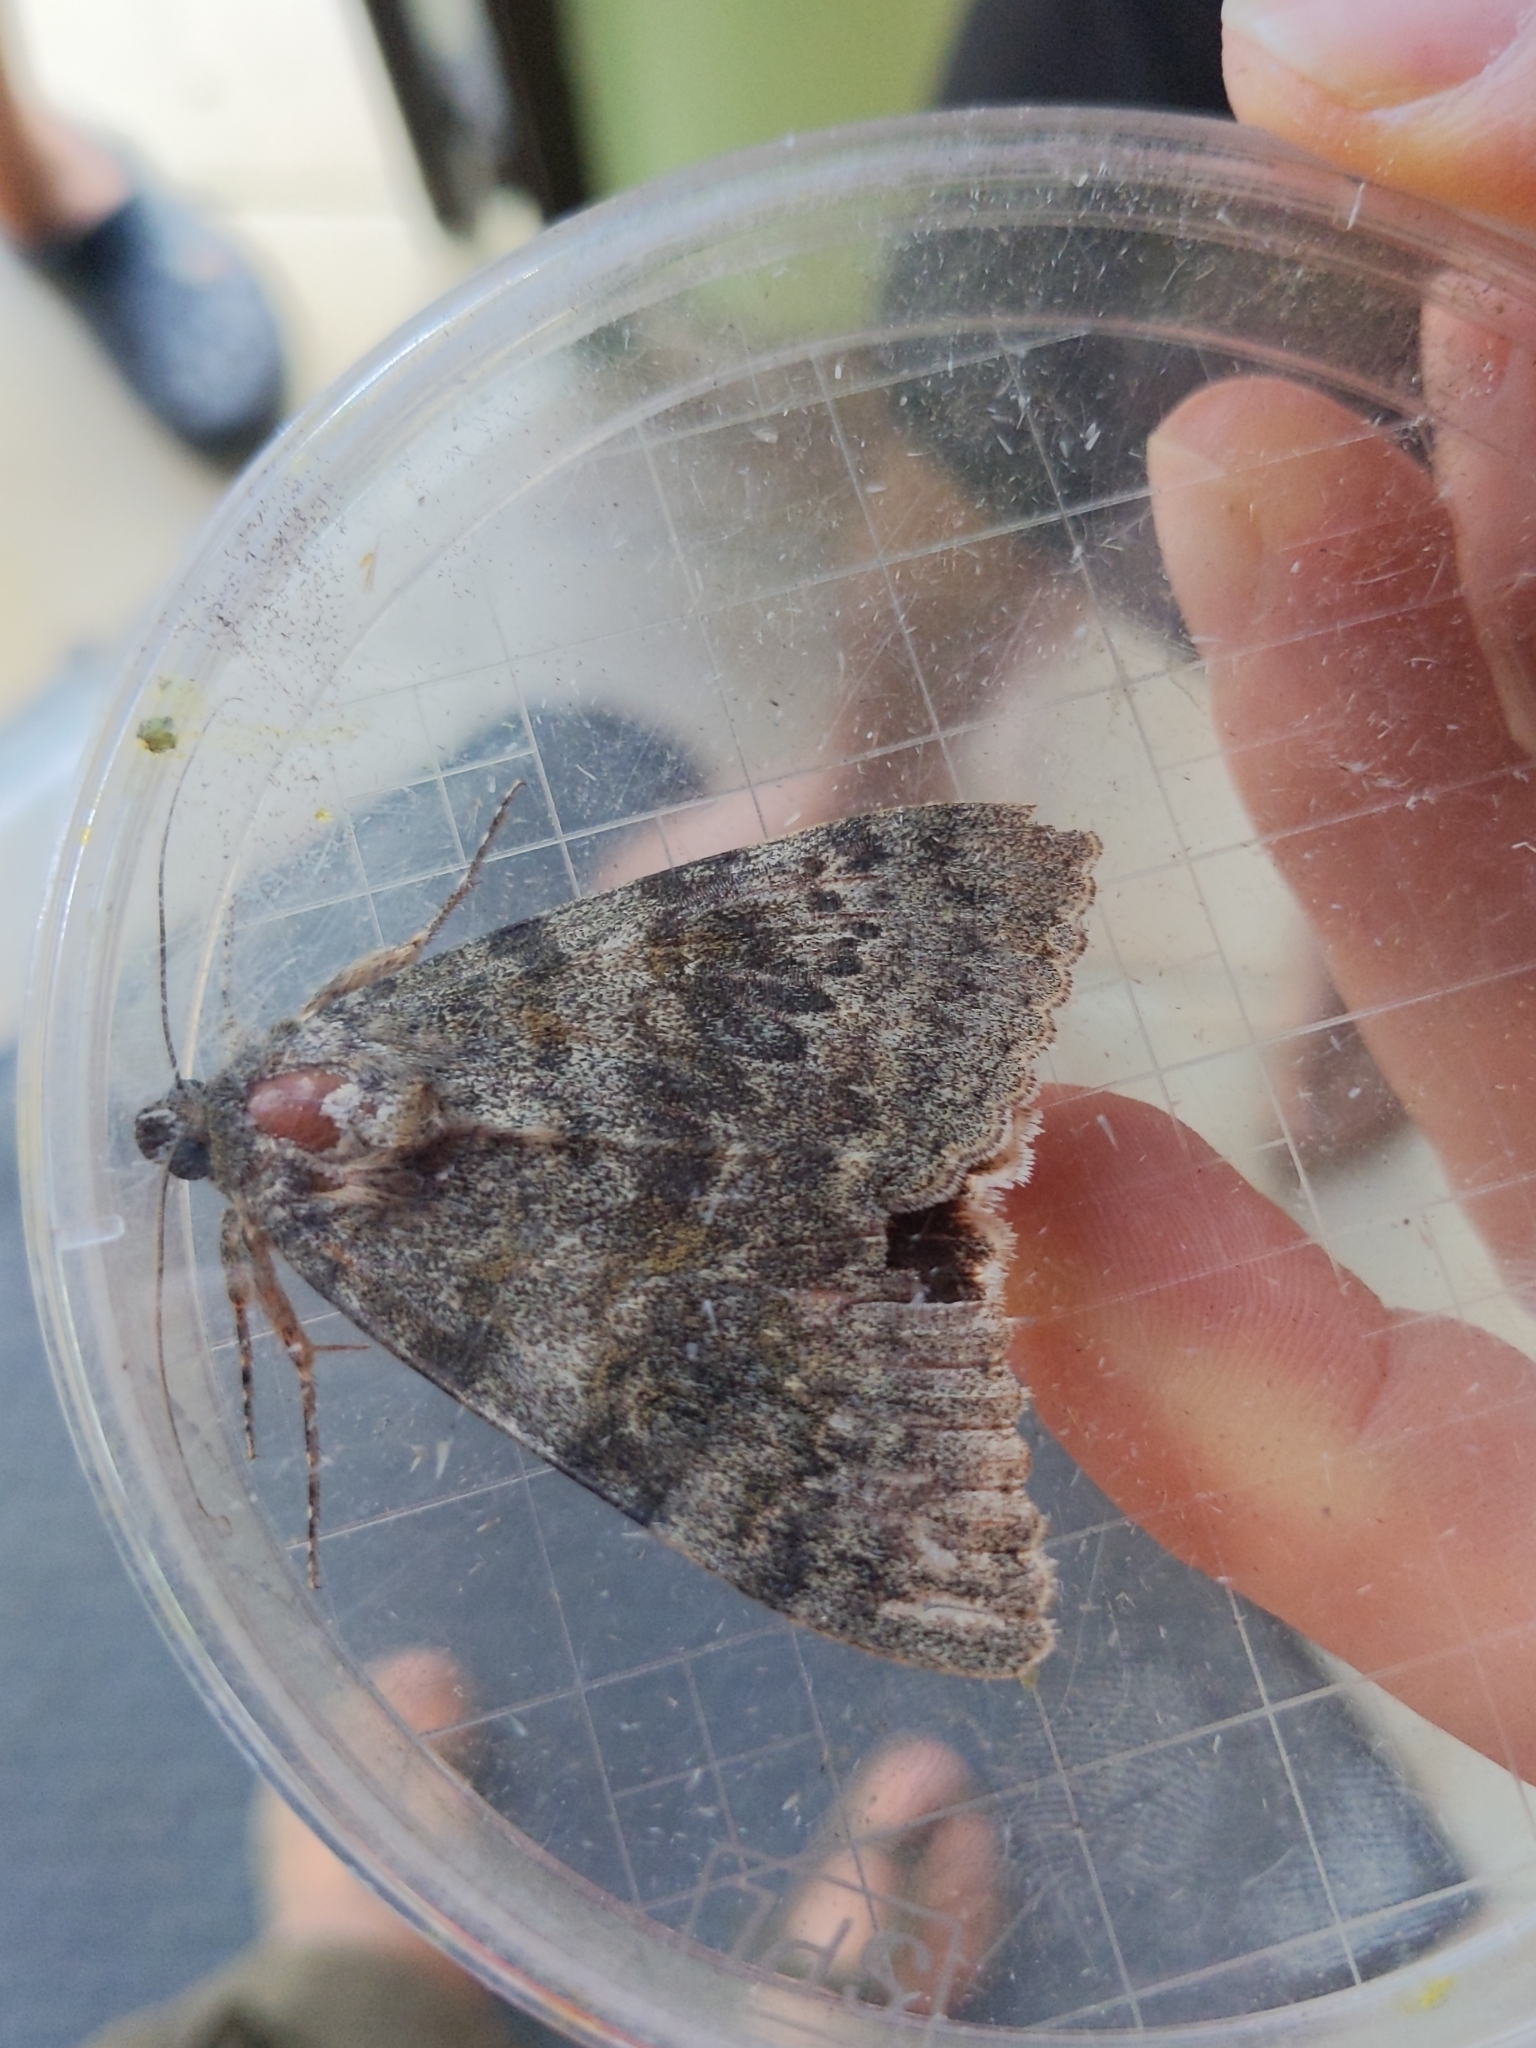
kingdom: Animalia
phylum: Arthropoda
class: Insecta
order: Lepidoptera
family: Erebidae
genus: Catocala
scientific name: Catocala elocata
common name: French red underwing
